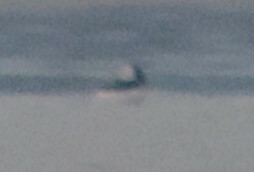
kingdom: Animalia
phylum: Chordata
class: Aves
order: Anseriformes
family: Anatidae
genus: Bucephala
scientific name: Bucephala albeola
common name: Bufflehead
